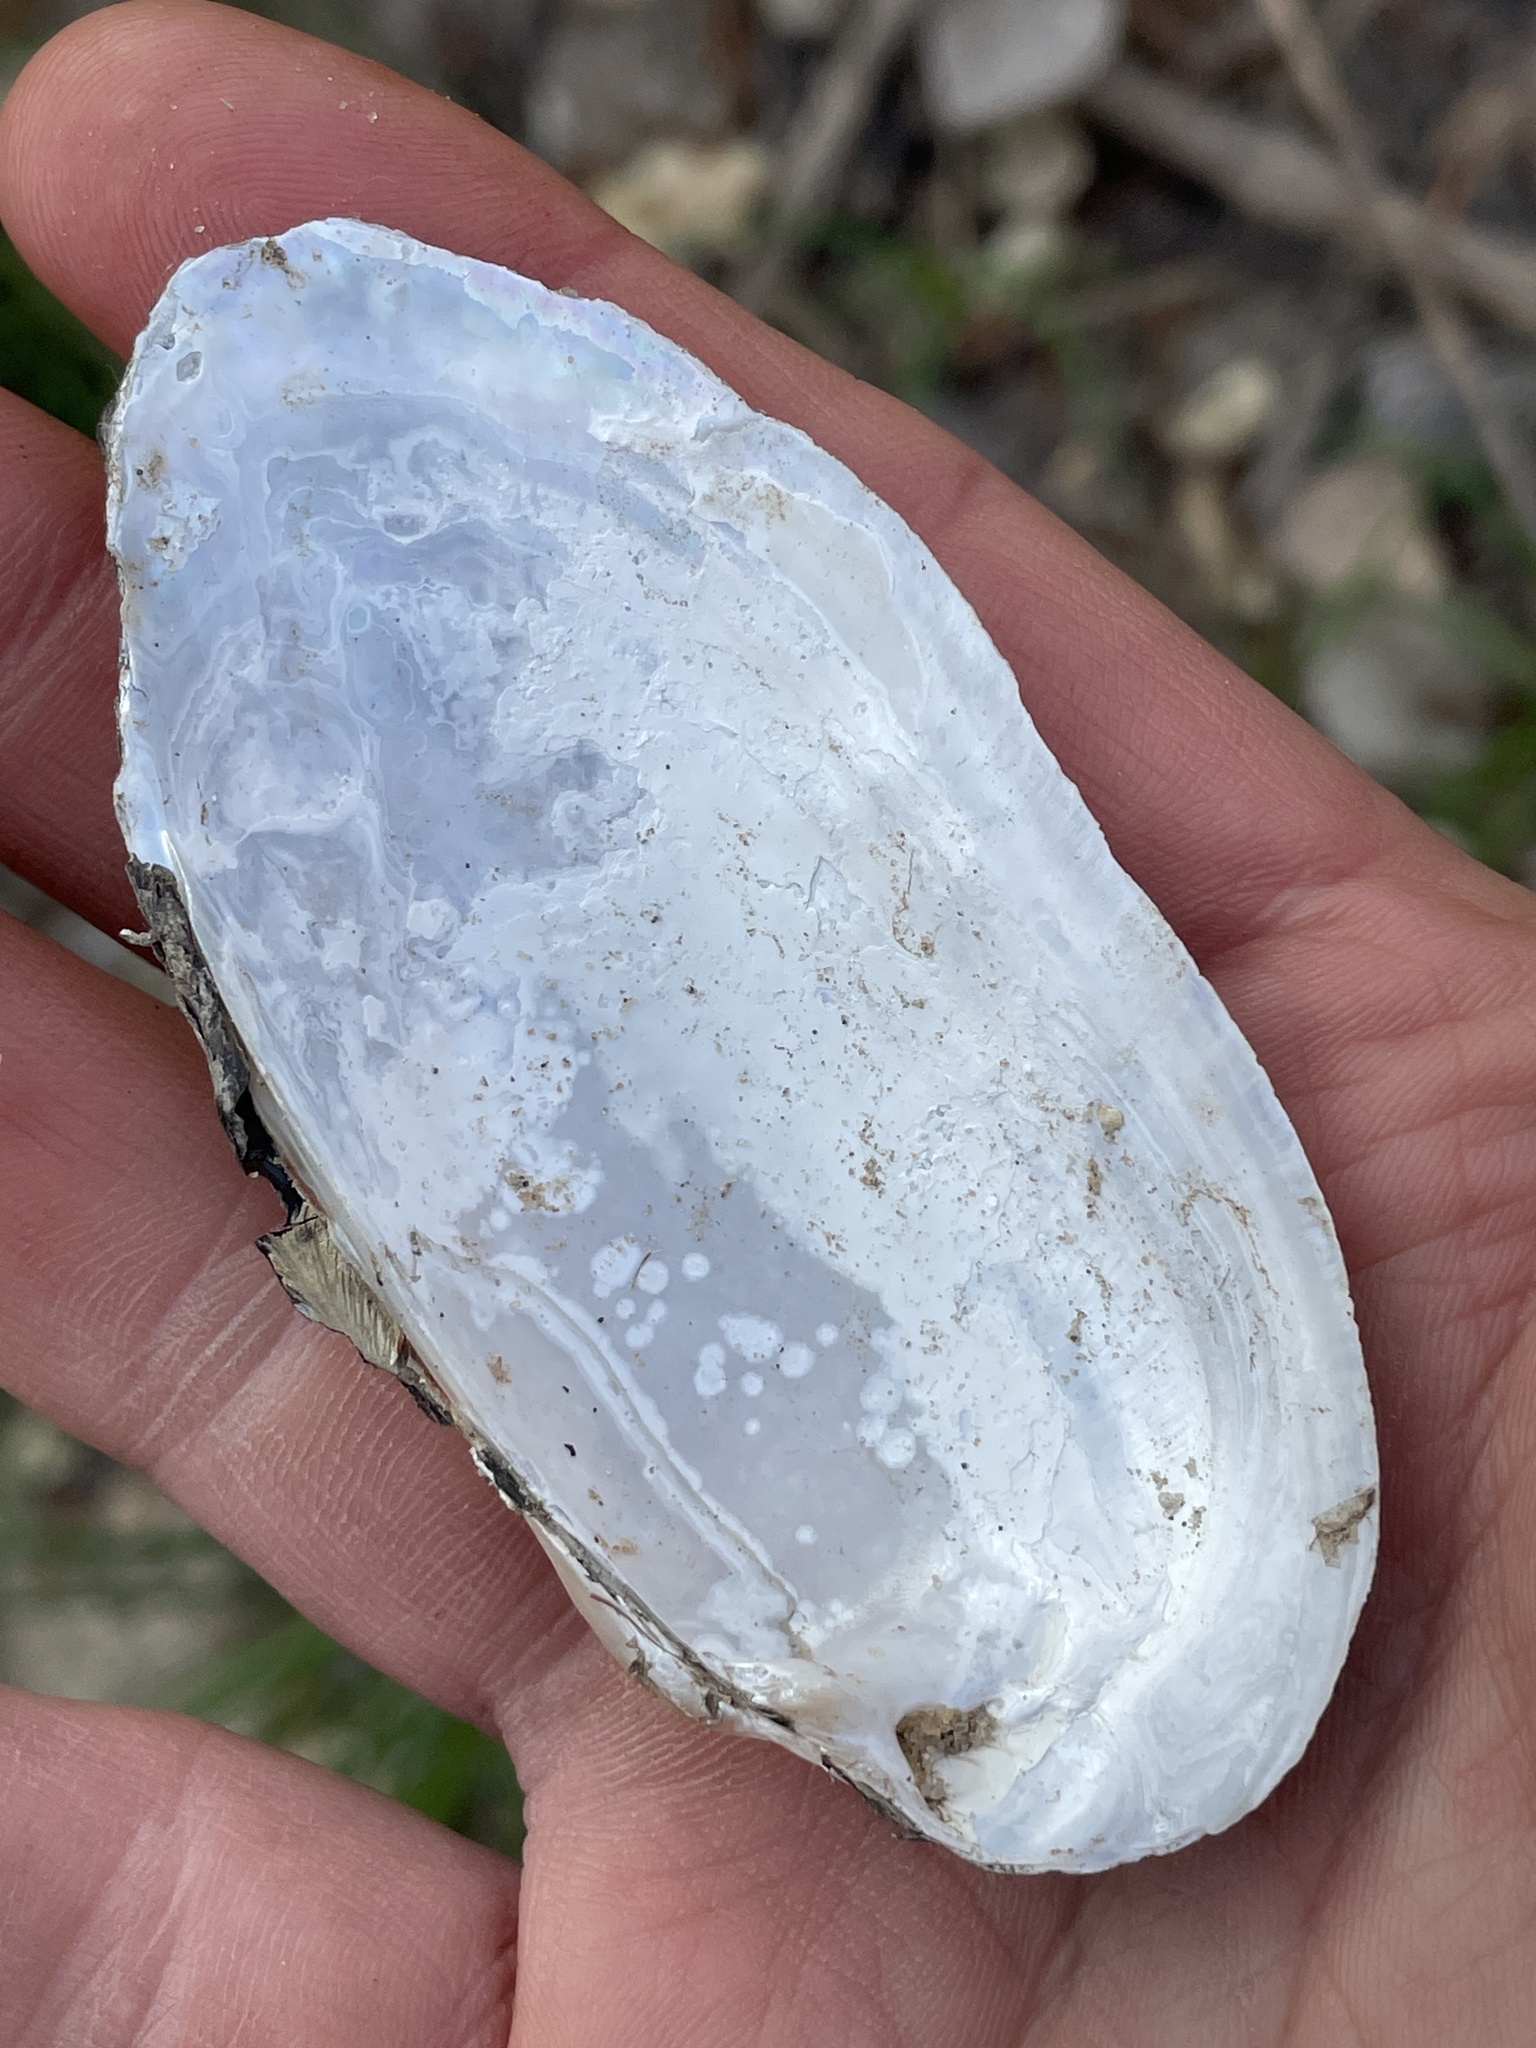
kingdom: Animalia
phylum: Mollusca
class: Bivalvia
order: Unionida
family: Unionidae
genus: Lampsilis
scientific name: Lampsilis teres
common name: Yellow sandshell
